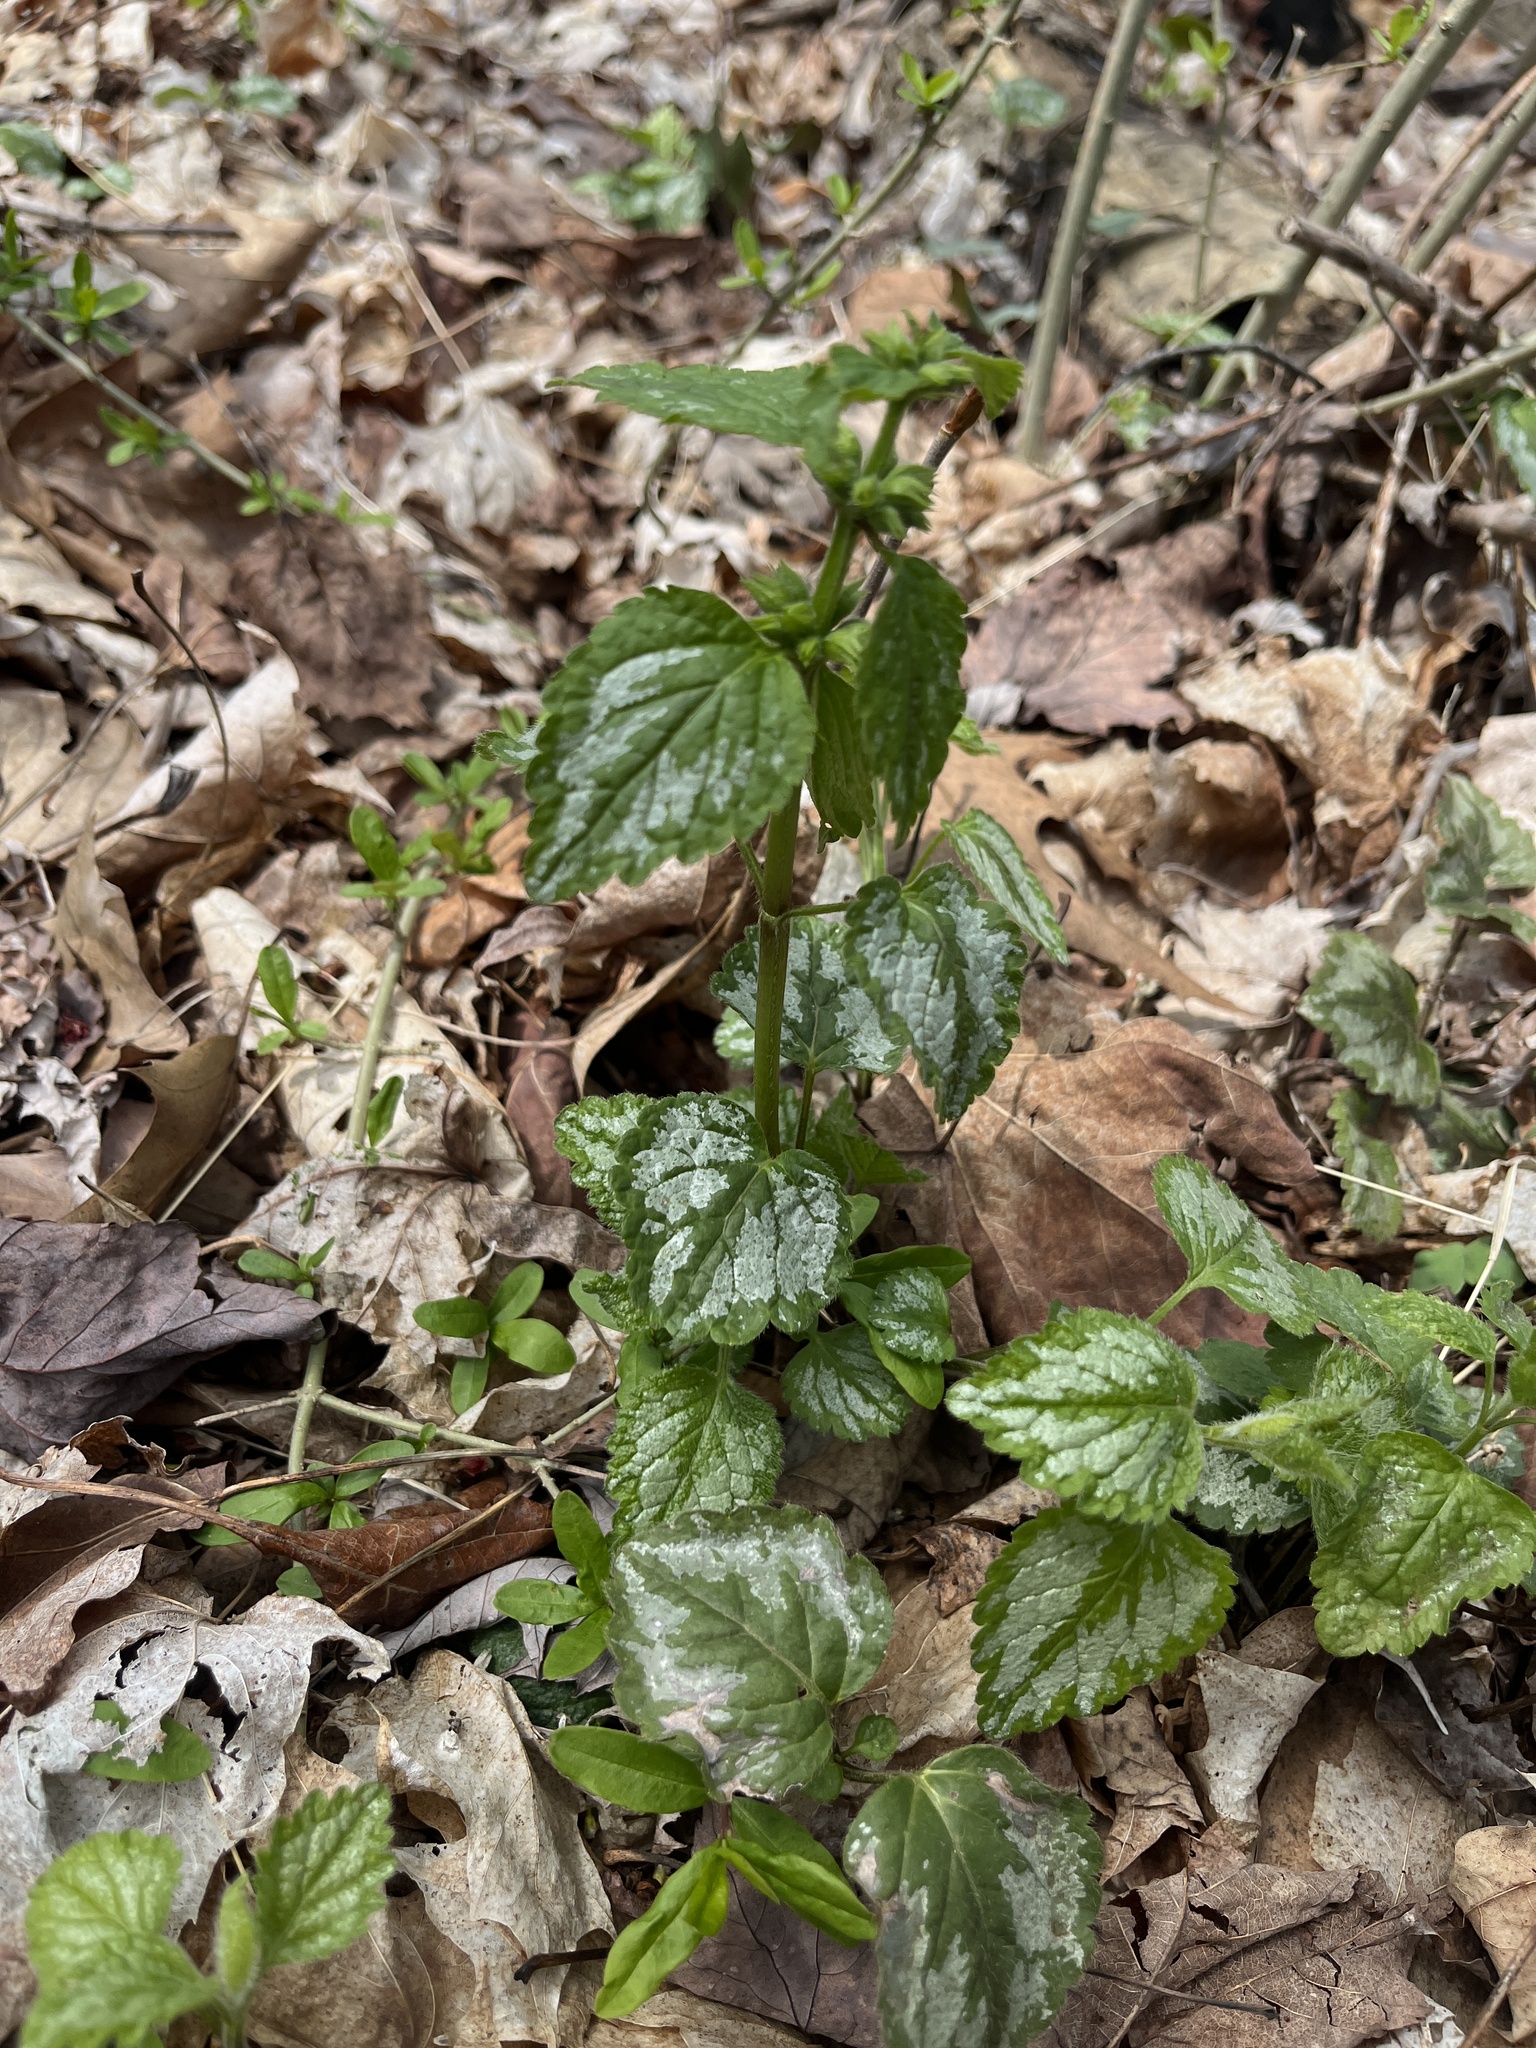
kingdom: Plantae
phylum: Tracheophyta
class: Magnoliopsida
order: Lamiales
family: Lamiaceae
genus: Lamium
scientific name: Lamium galeobdolon
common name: Yellow archangel
